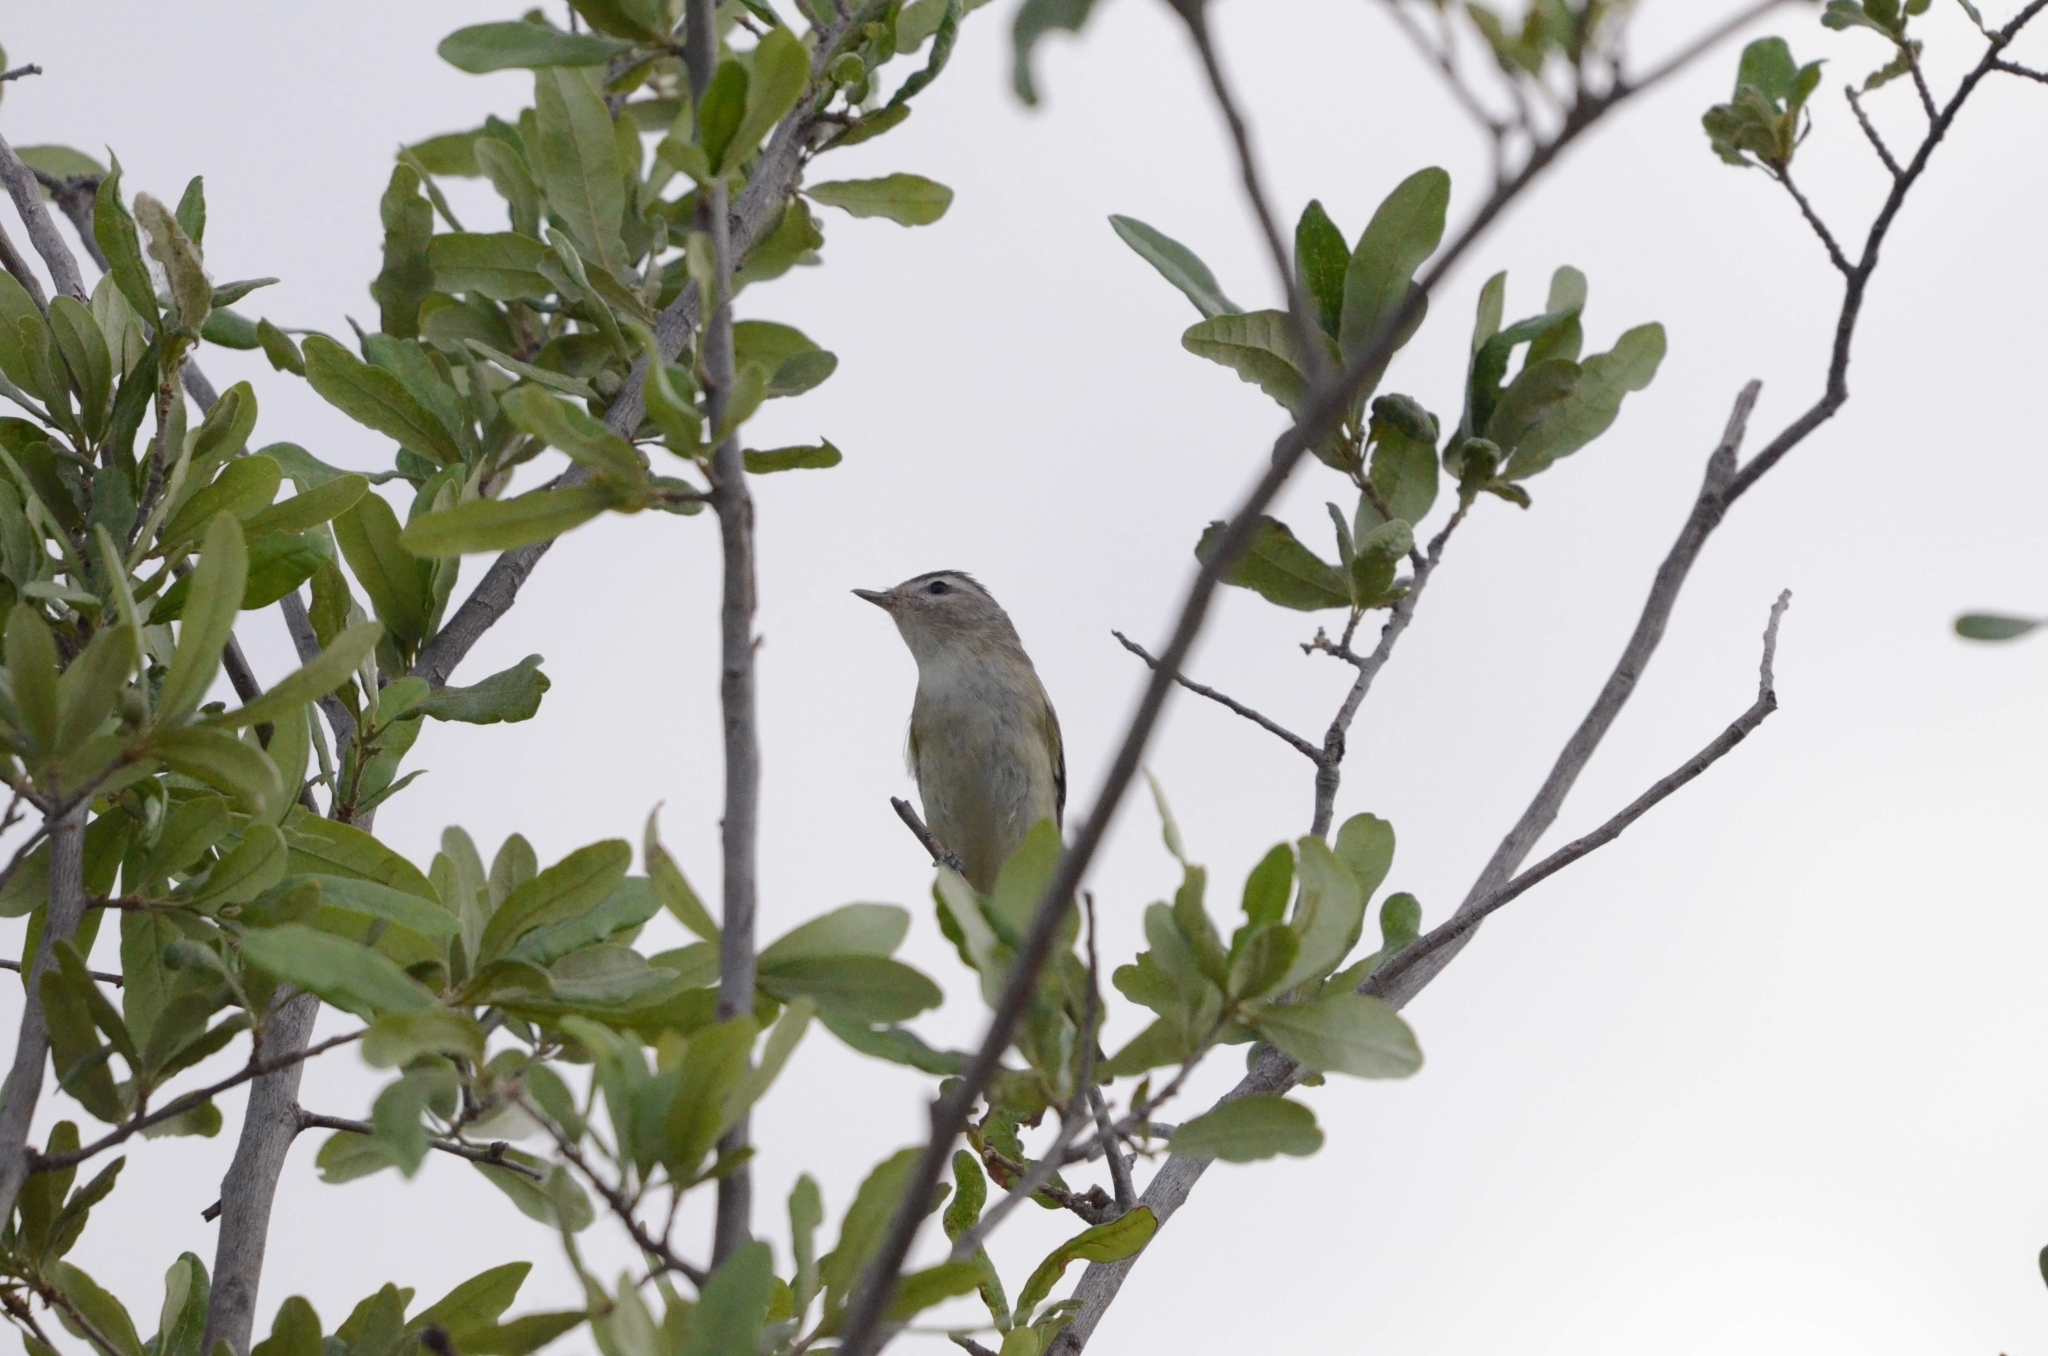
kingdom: Animalia
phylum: Chordata
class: Aves
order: Passeriformes
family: Vireonidae
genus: Vireo
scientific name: Vireo gilvus
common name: Warbling vireo
